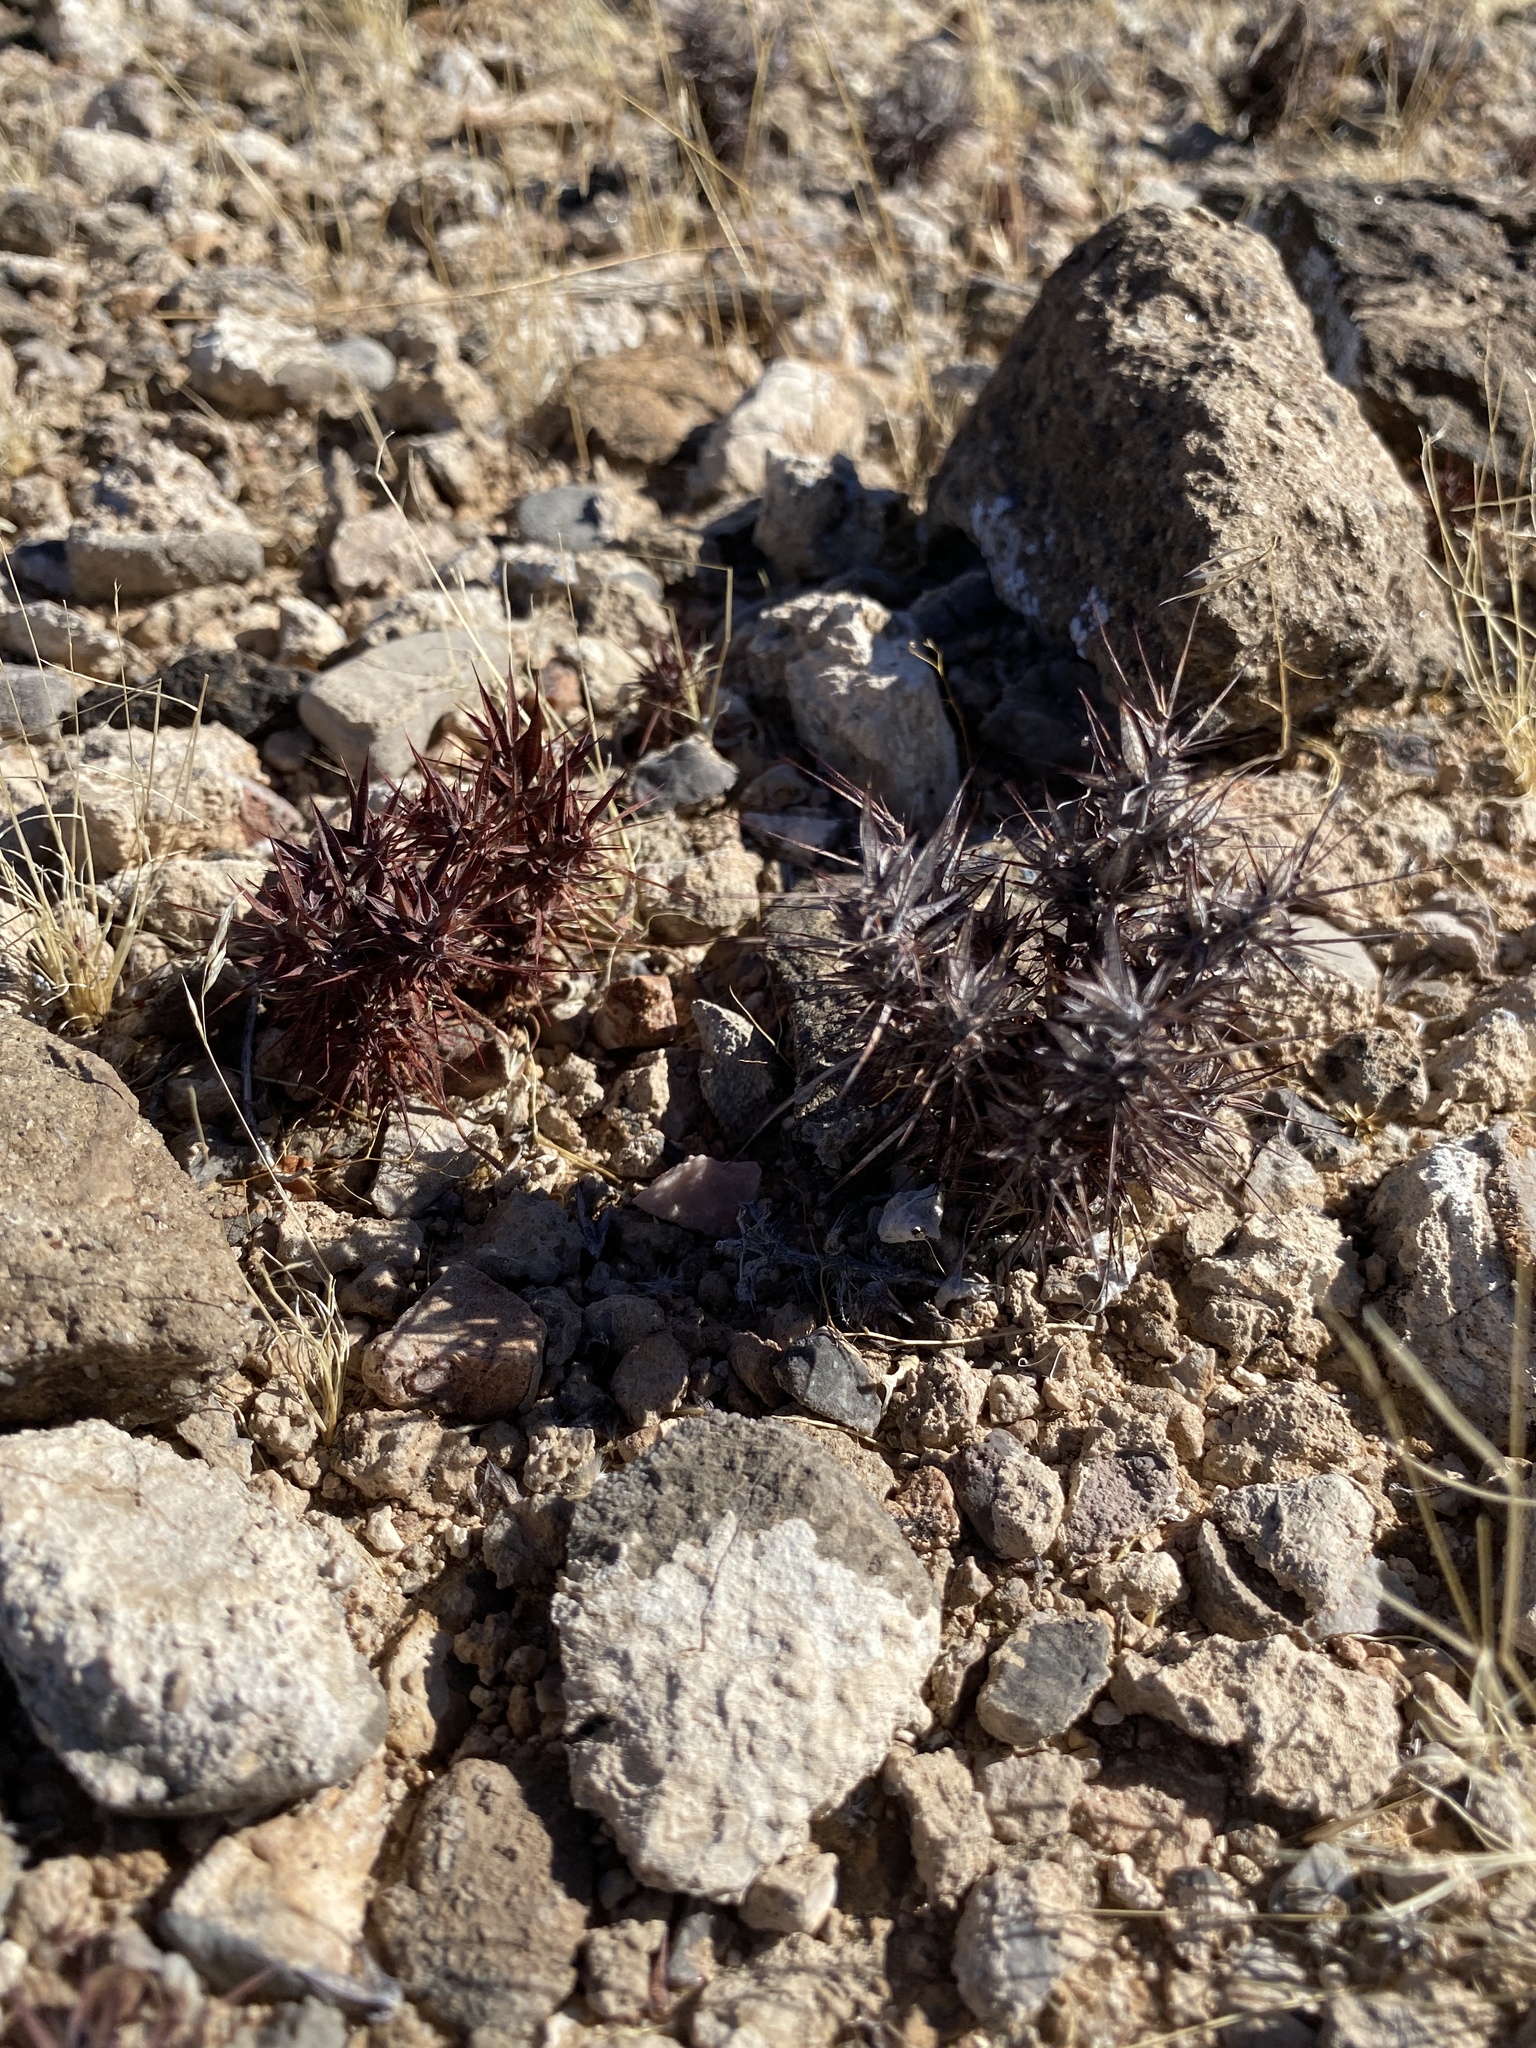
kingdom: Plantae
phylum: Tracheophyta
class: Magnoliopsida
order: Caryophyllales
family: Polygonaceae
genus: Chorizanthe
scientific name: Chorizanthe rigida
